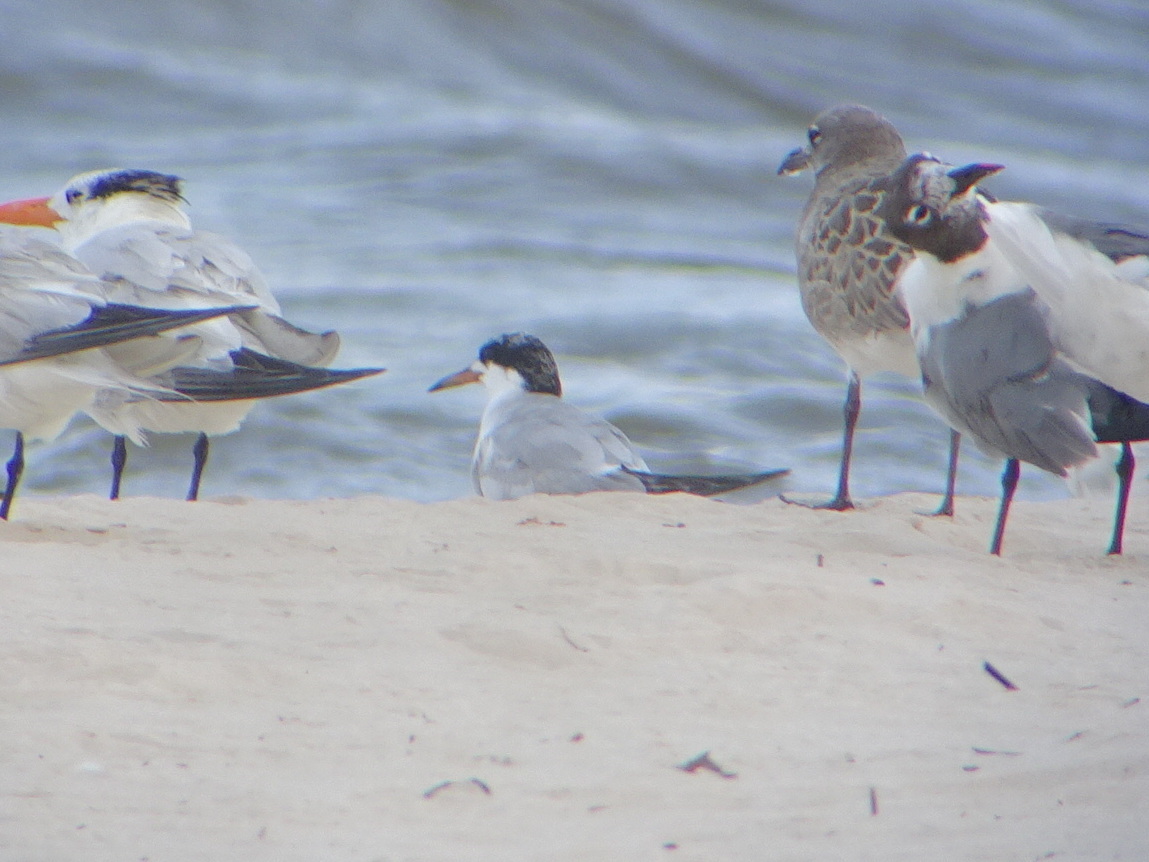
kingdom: Animalia
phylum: Chordata
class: Aves
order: Charadriiformes
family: Laridae
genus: Sterna
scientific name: Sterna forsteri
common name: Forster's tern
